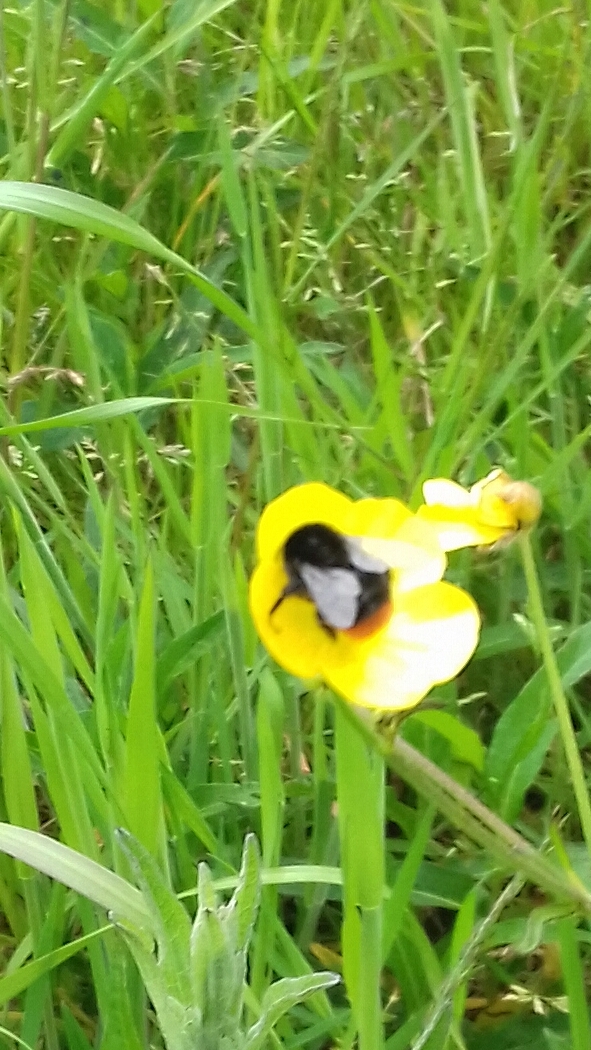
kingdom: Animalia
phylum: Arthropoda
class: Insecta
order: Hymenoptera
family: Apidae
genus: Bombus
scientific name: Bombus lapidarius
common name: Large red-tailed humble-bee
